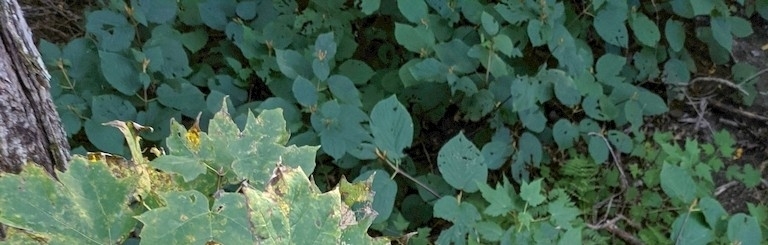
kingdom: Plantae
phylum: Tracheophyta
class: Magnoliopsida
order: Dipsacales
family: Viburnaceae
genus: Viburnum
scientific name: Viburnum lantanoides
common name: Hobblebush
